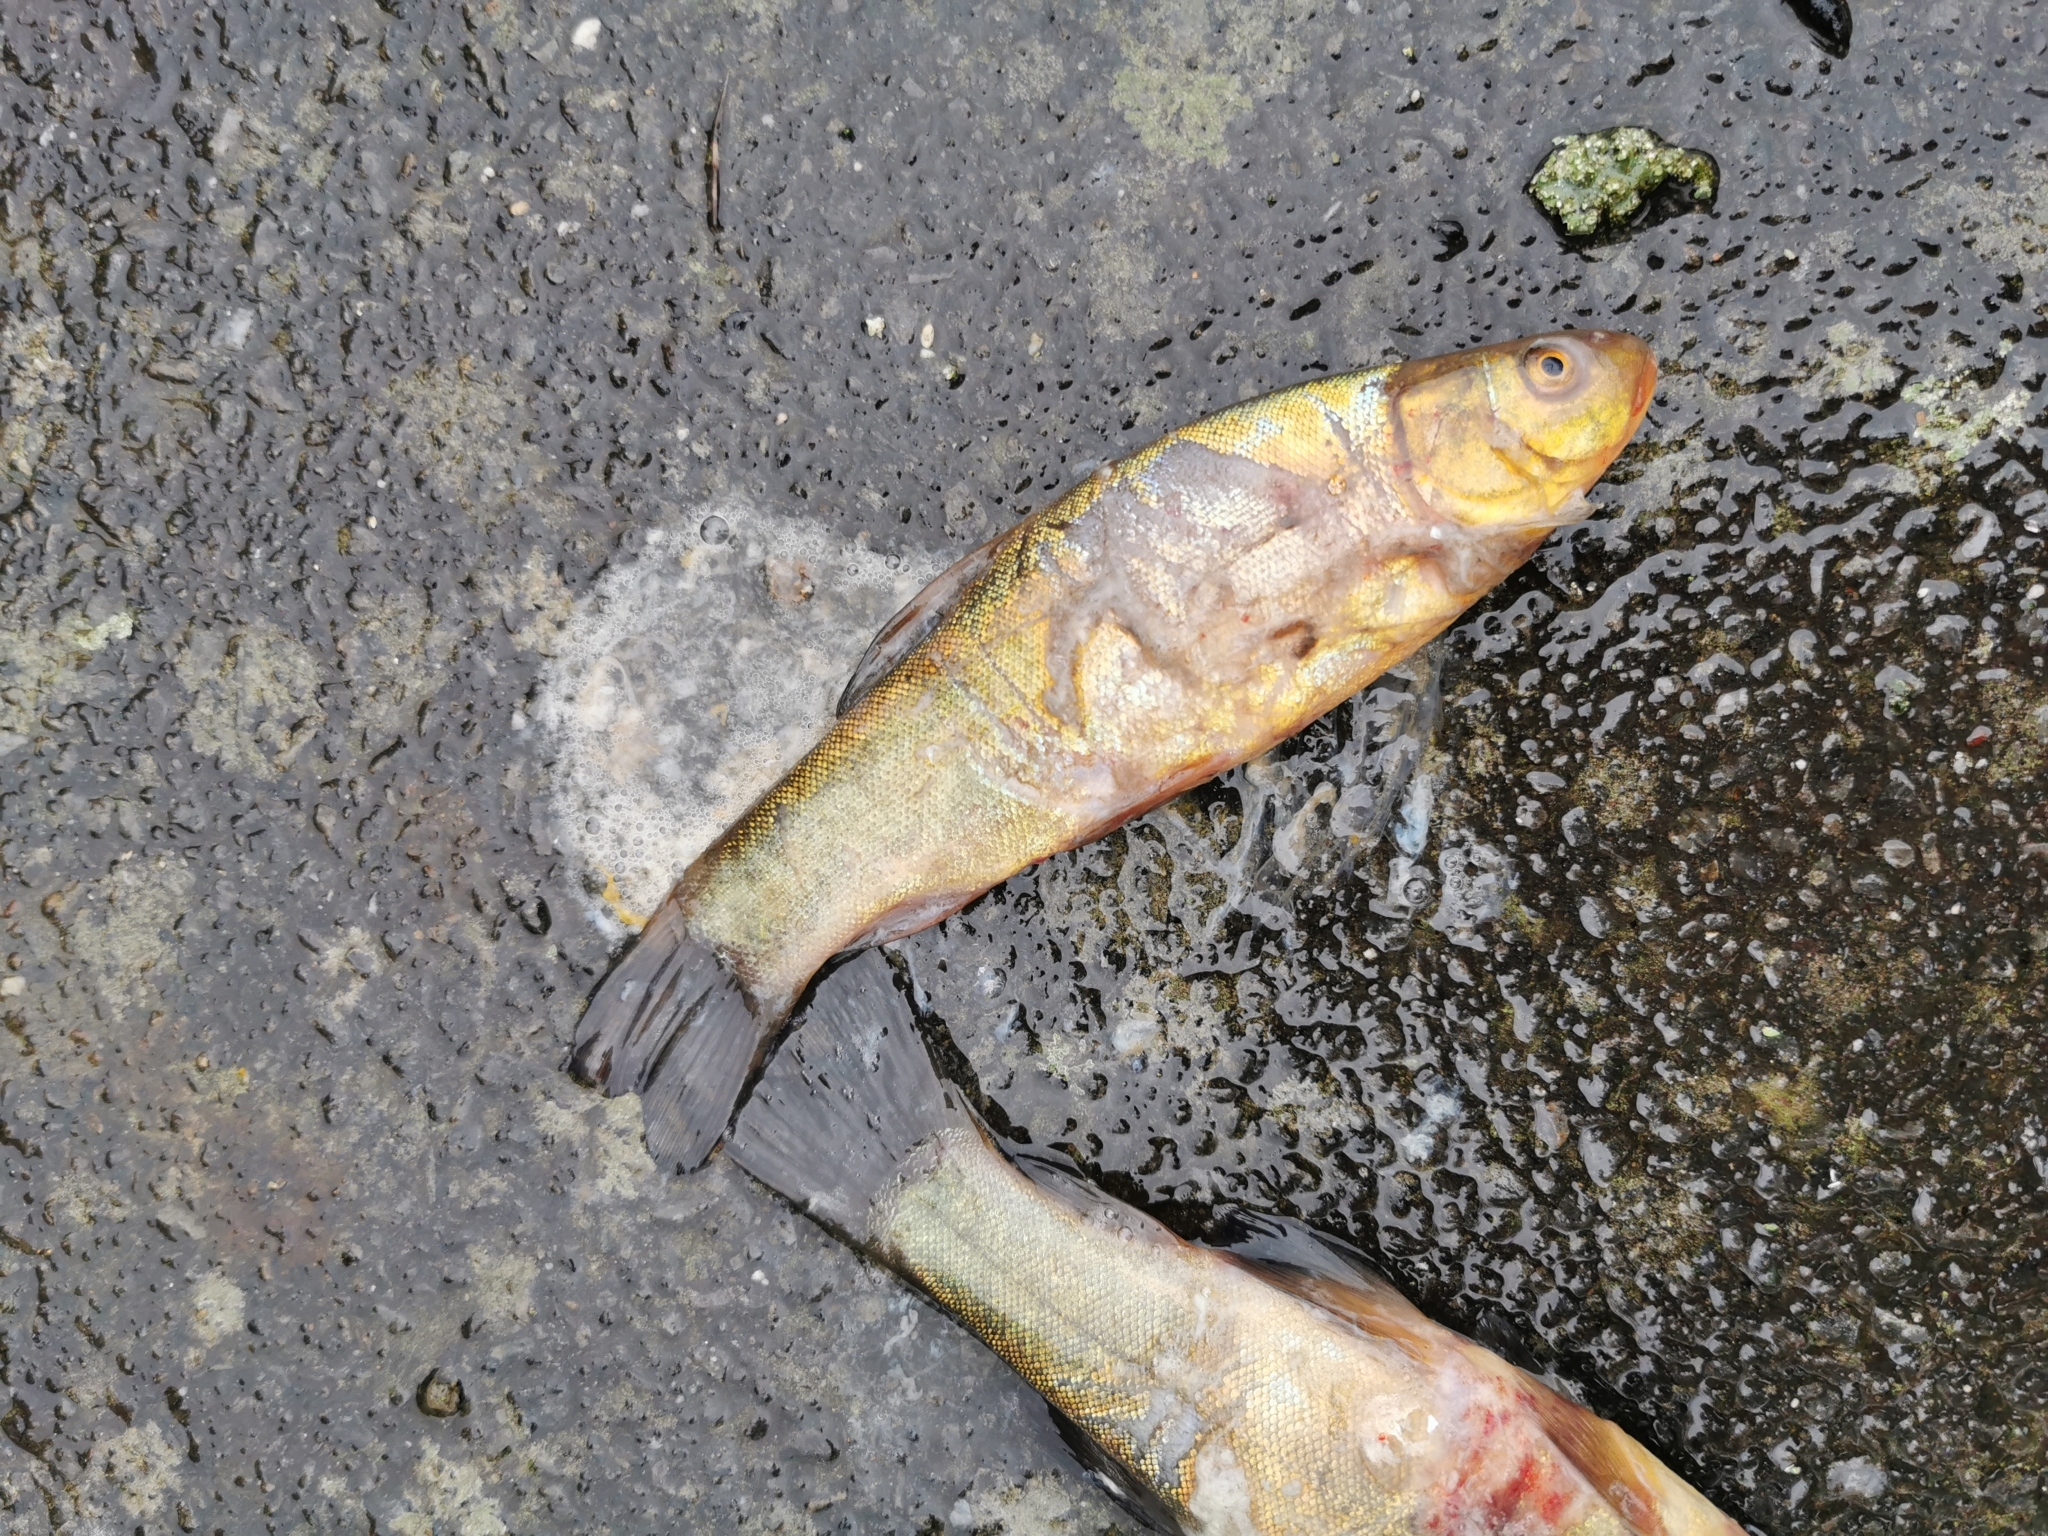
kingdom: Animalia
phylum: Chordata
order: Cypriniformes
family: Cyprinidae
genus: Tinca
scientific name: Tinca tinca
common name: Tench
